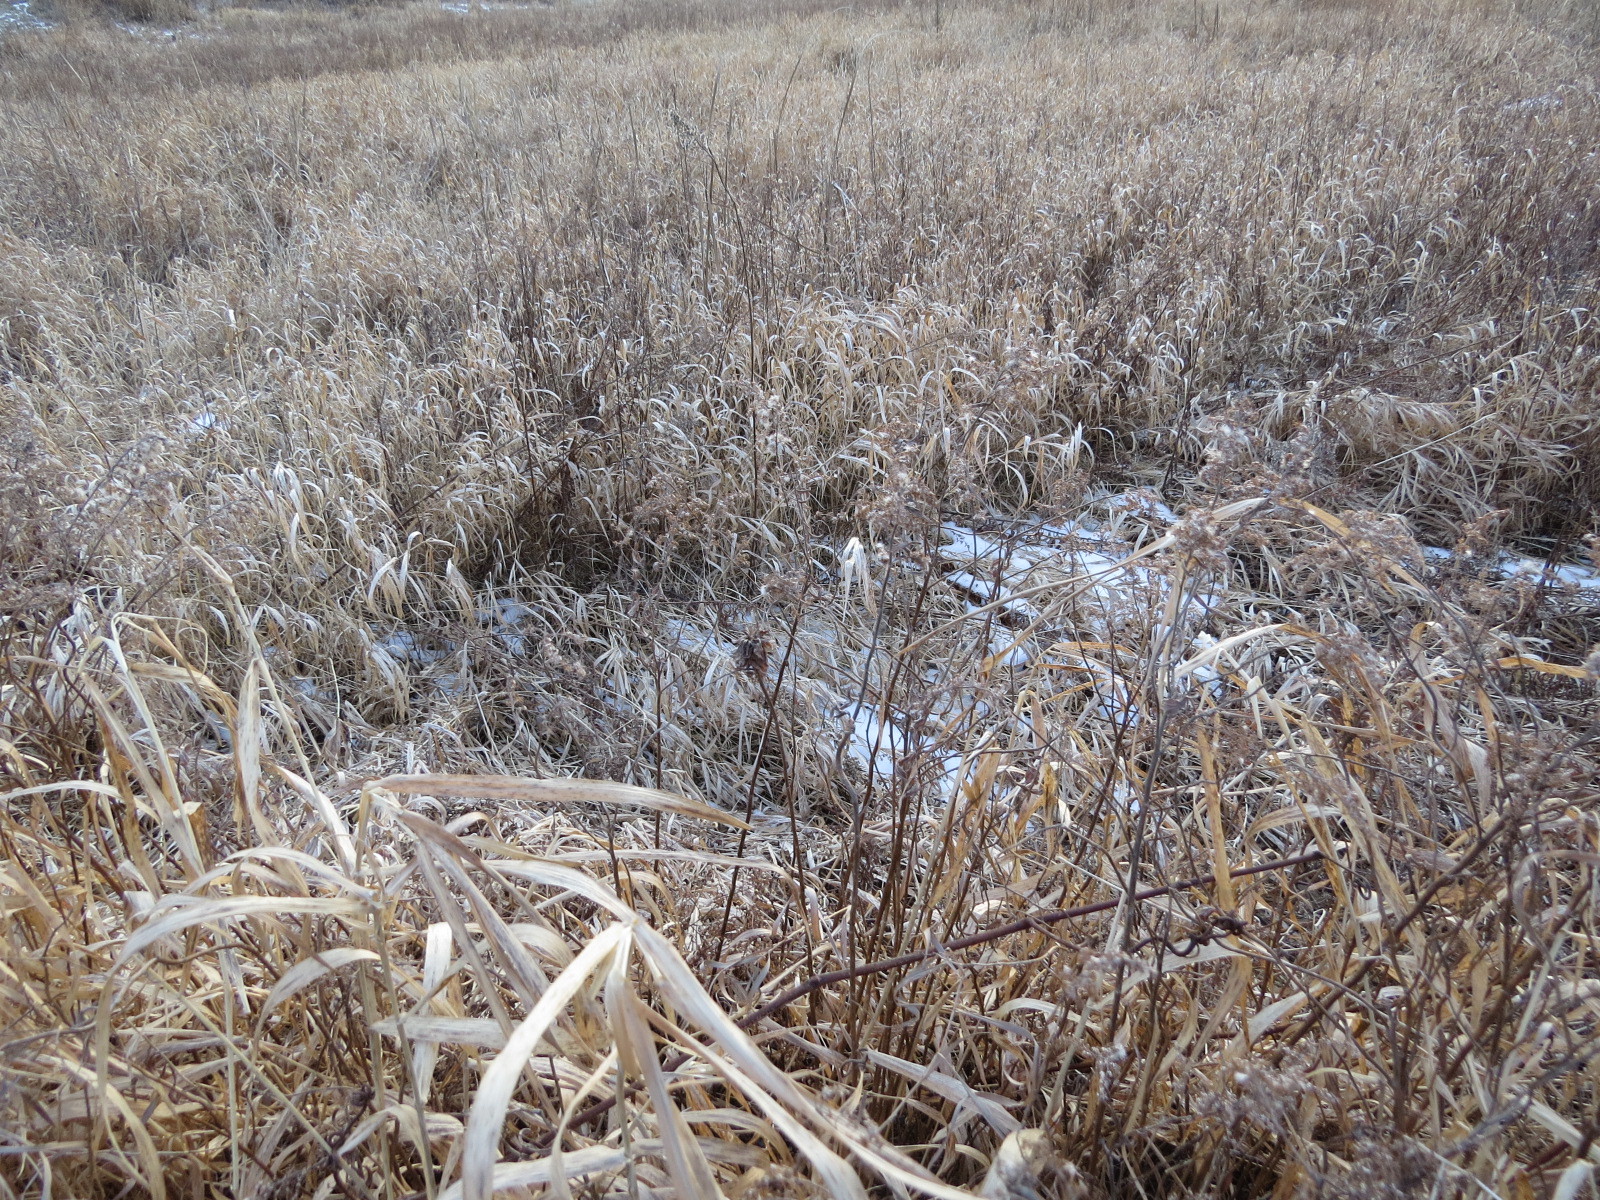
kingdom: Animalia
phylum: Arthropoda
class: Insecta
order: Diptera
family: Cecidomyiidae
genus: Rhopalomyia
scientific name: Rhopalomyia solidaginis
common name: Goldenrod bunch gall midge
